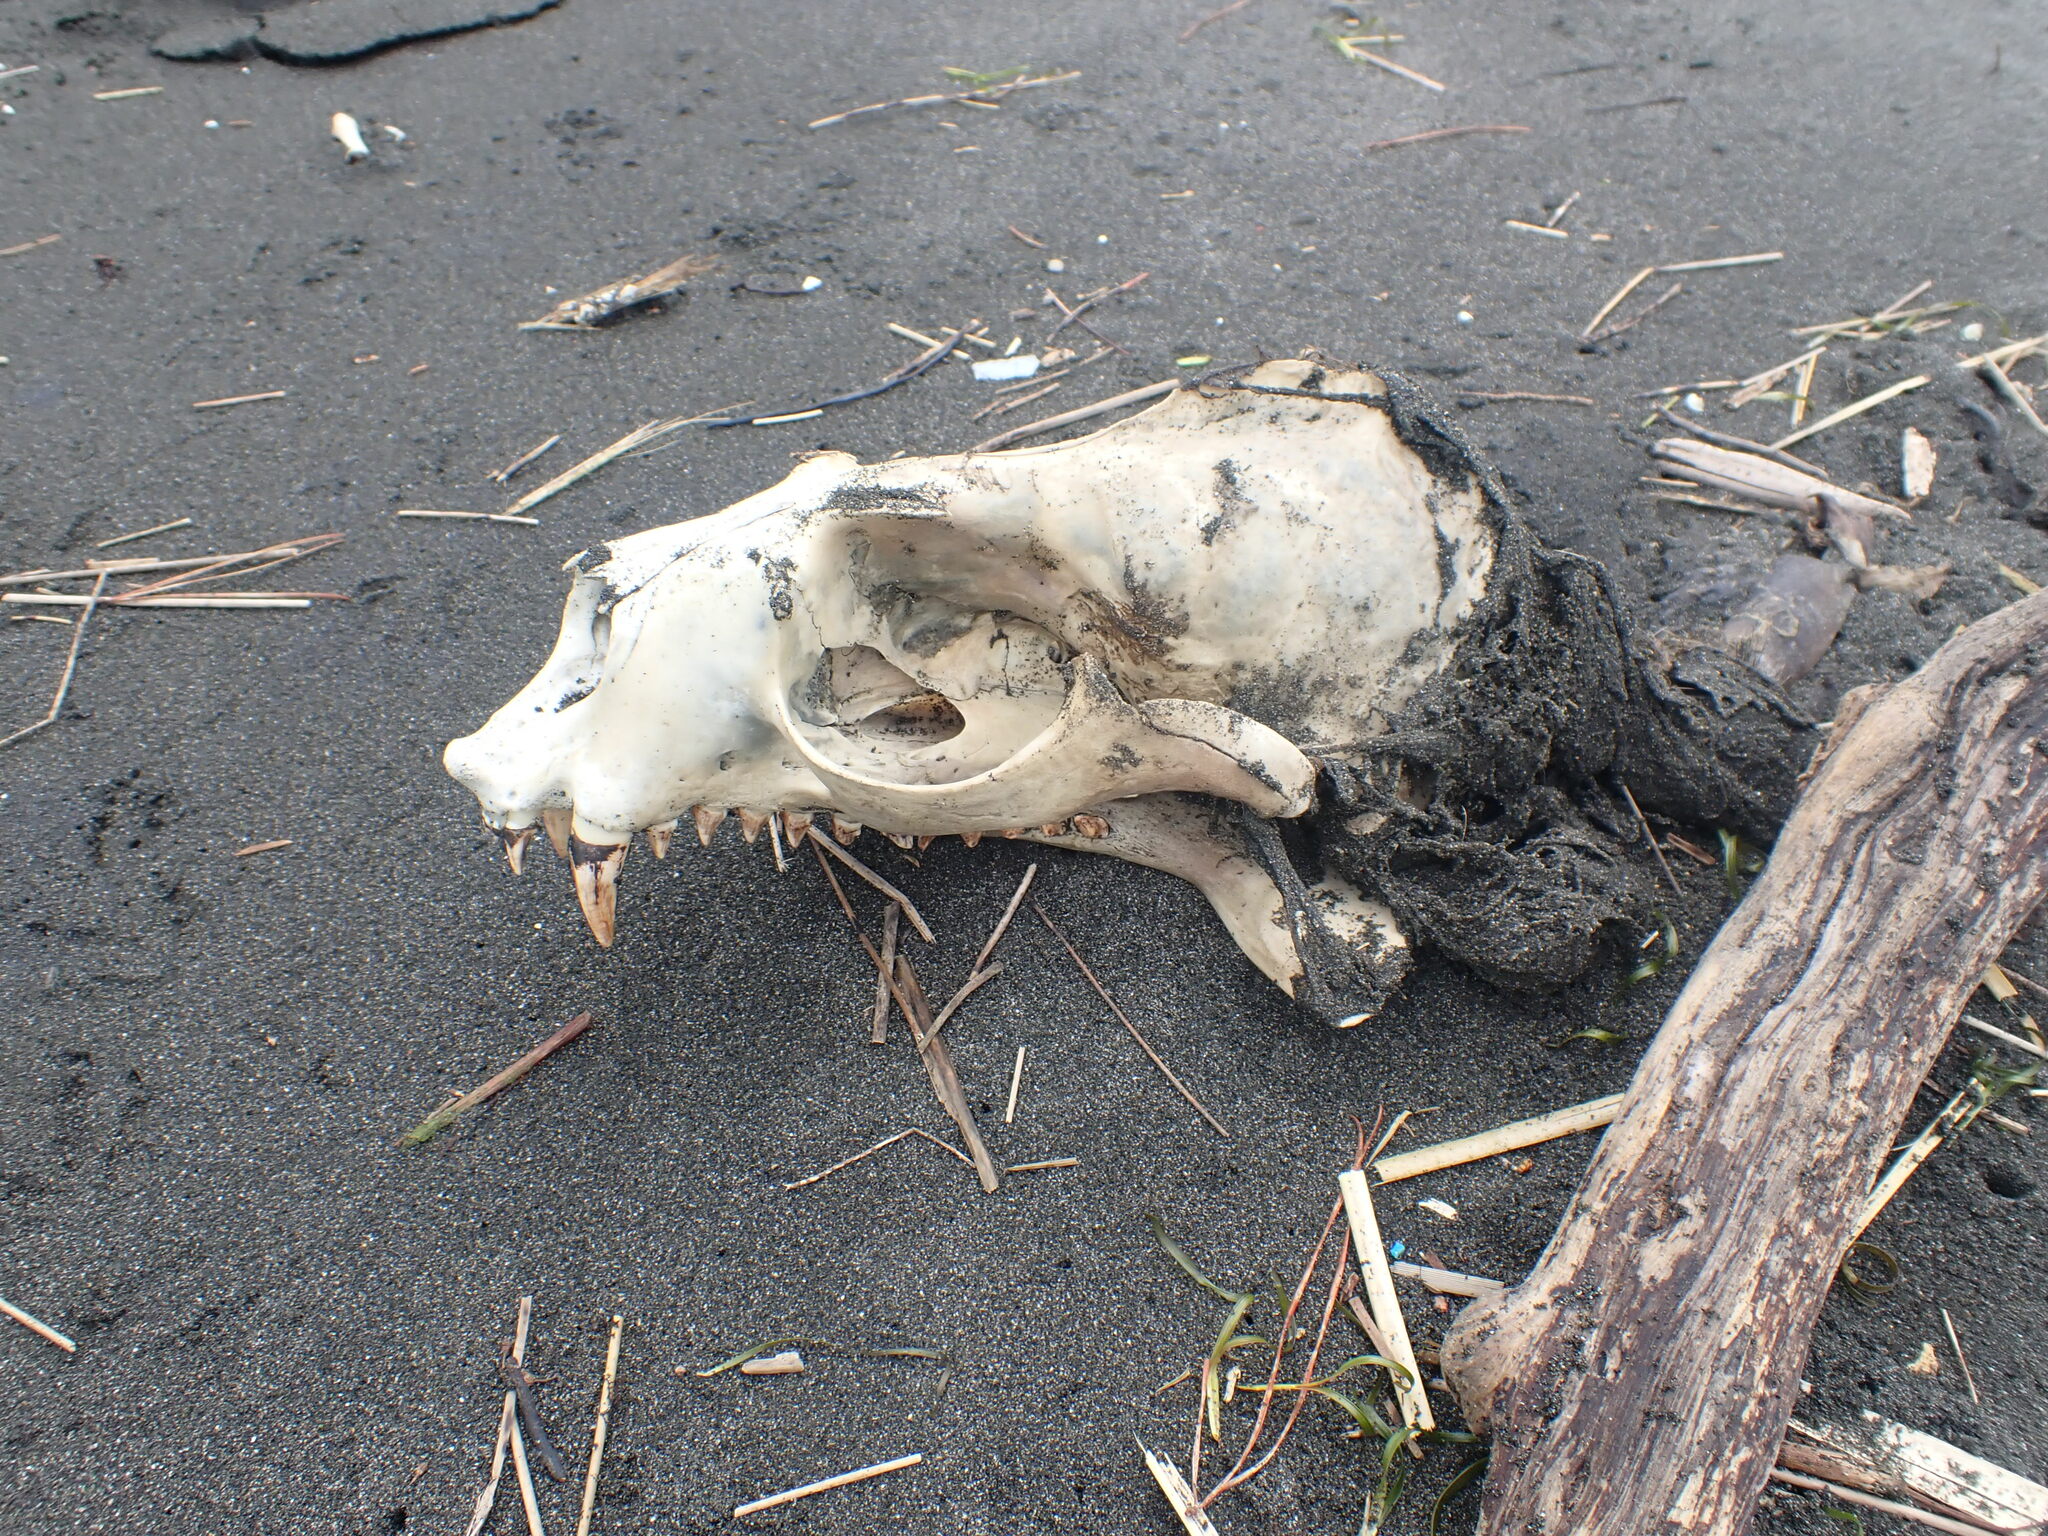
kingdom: Animalia
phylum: Chordata
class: Mammalia
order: Carnivora
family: Otariidae
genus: Arctocephalus
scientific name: Arctocephalus forsteri
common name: New zealand fur seal
